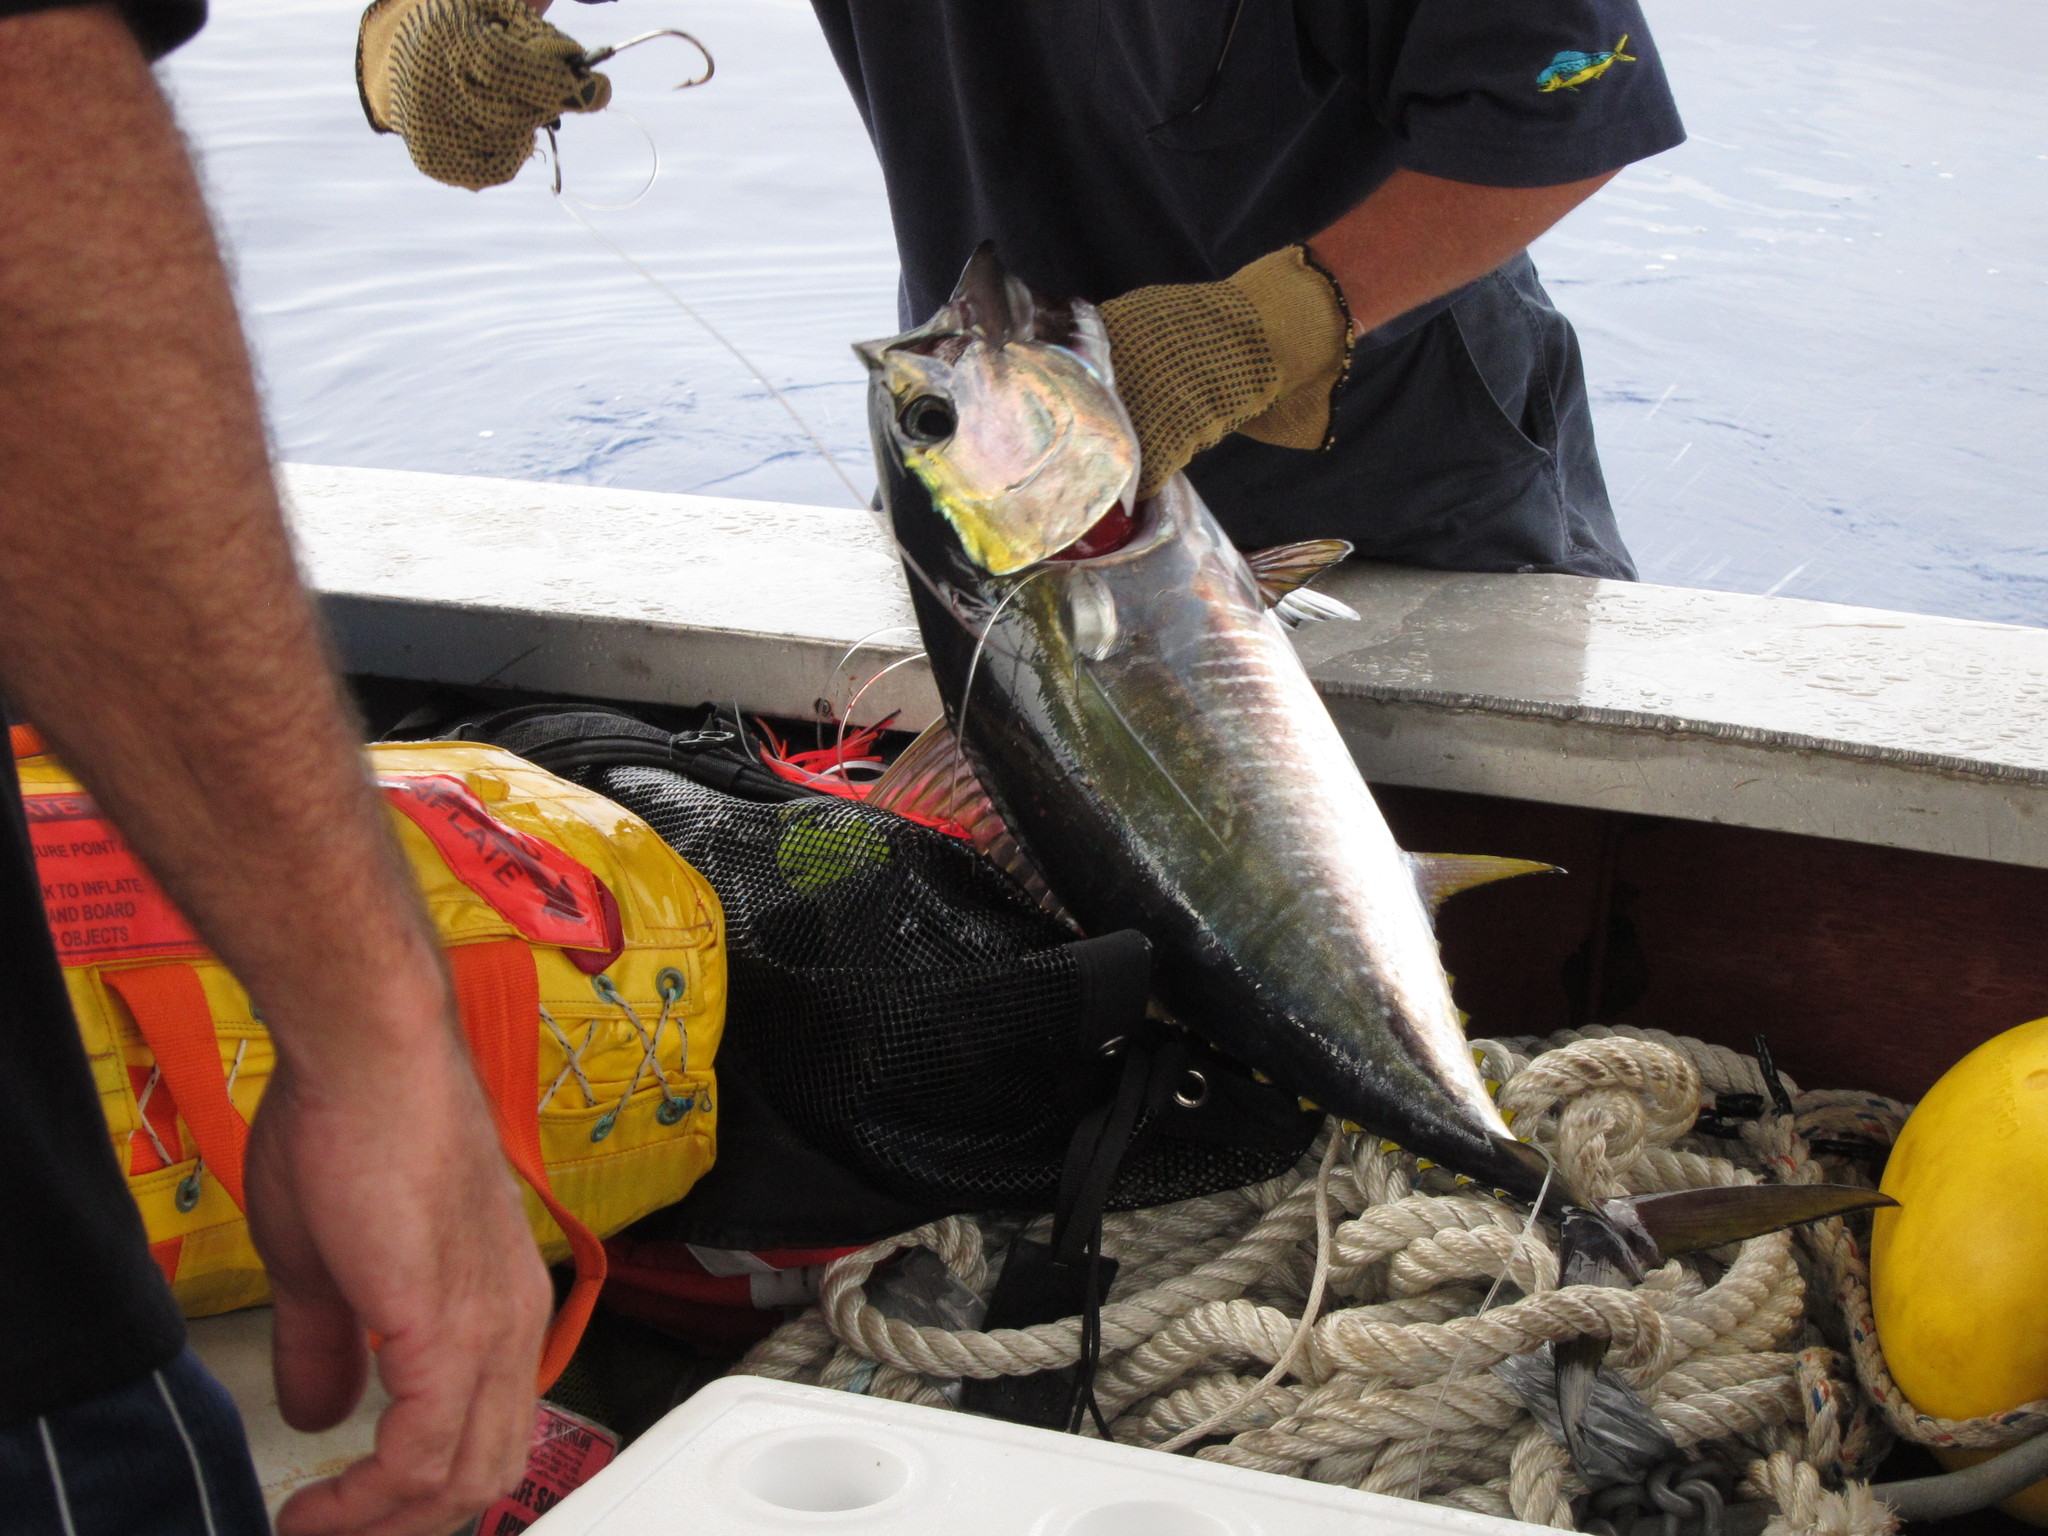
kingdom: Animalia
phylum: Chordata
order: Perciformes
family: Scombridae
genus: Thunnus
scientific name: Thunnus albacares
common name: Yellowfin tuna
